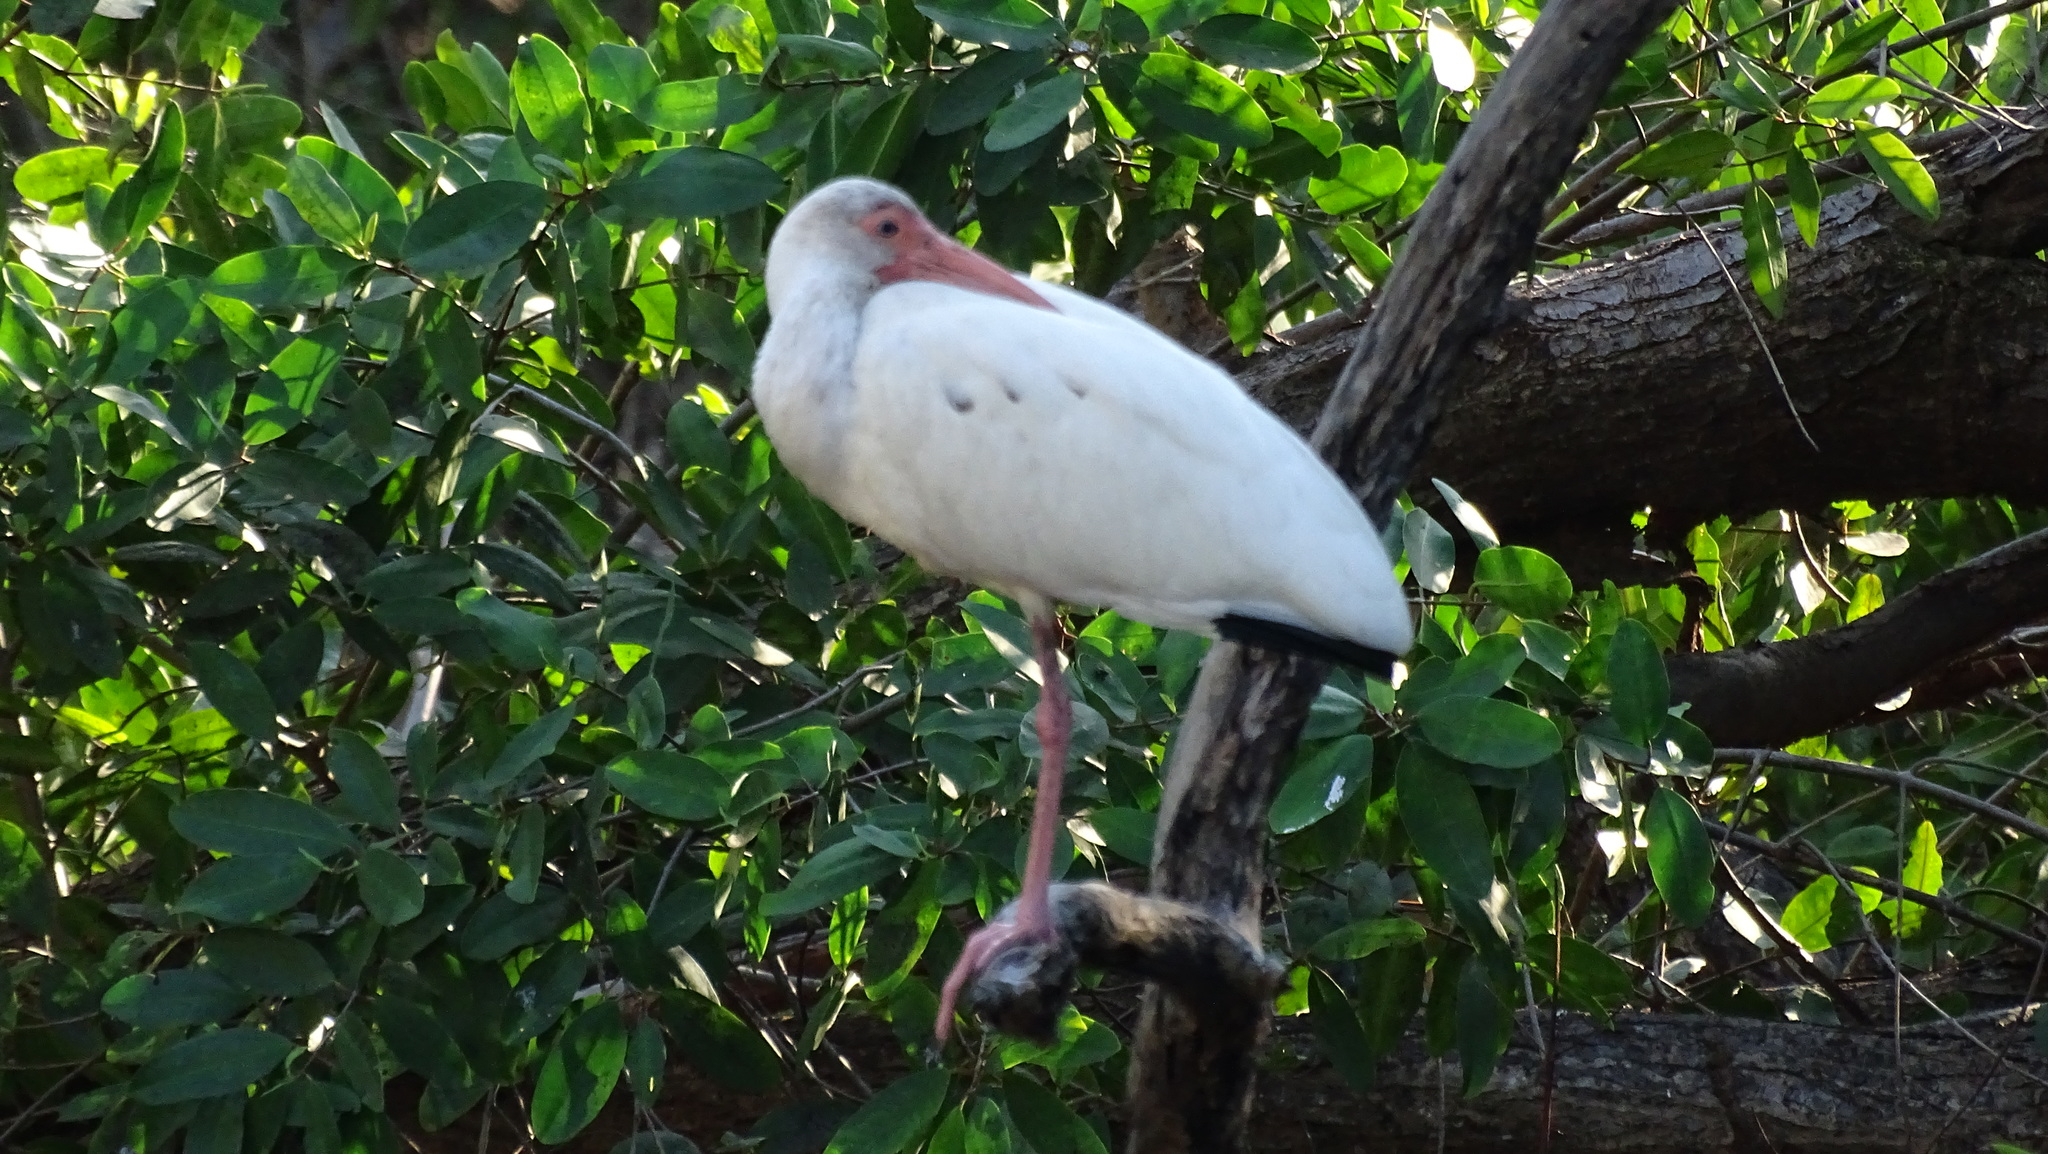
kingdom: Animalia
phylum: Chordata
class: Aves
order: Pelecaniformes
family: Threskiornithidae
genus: Eudocimus
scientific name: Eudocimus albus
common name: White ibis
